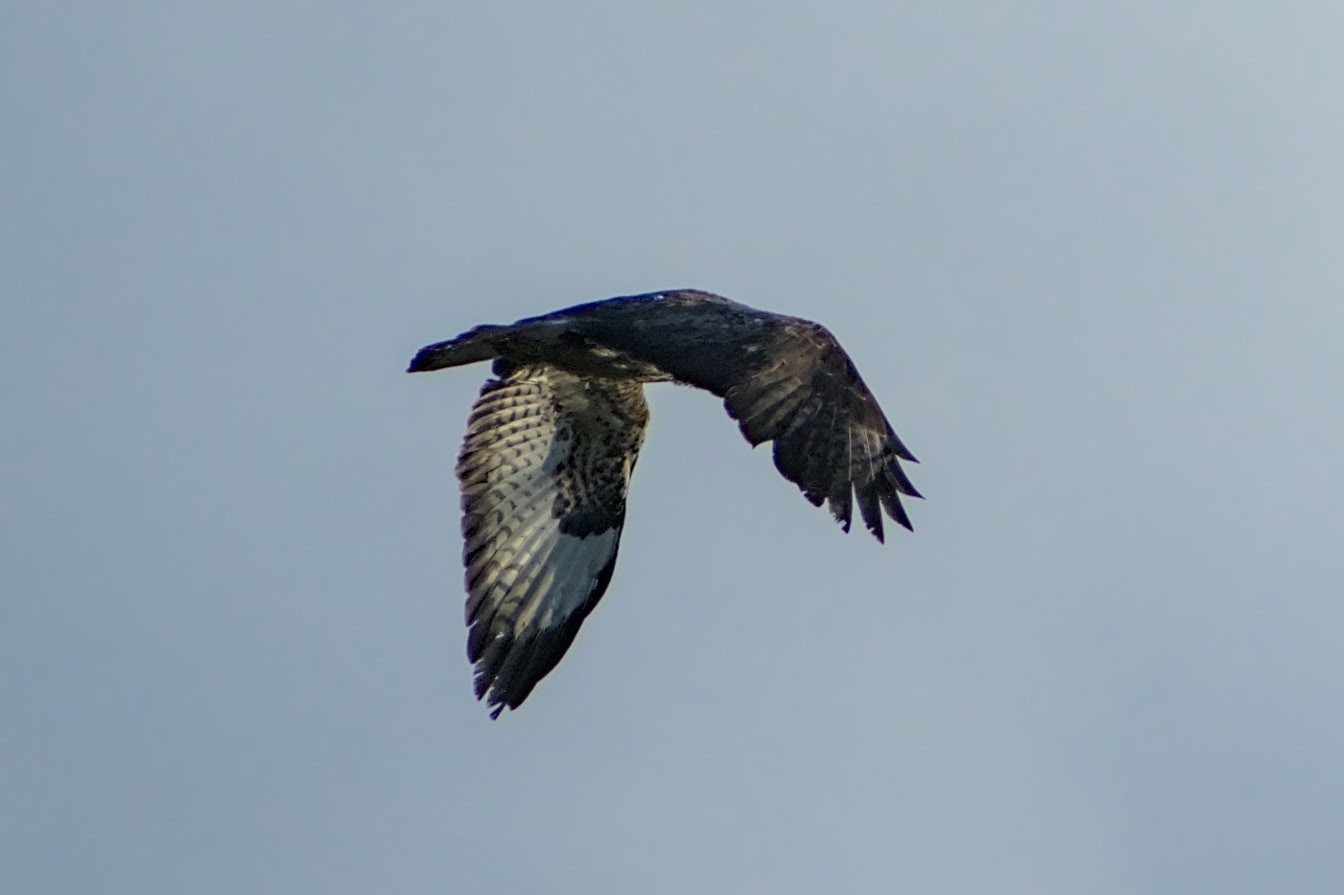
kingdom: Animalia
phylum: Chordata
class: Aves
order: Accipitriformes
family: Accipitridae
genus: Buteo
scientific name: Buteo buteo
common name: Common buzzard
